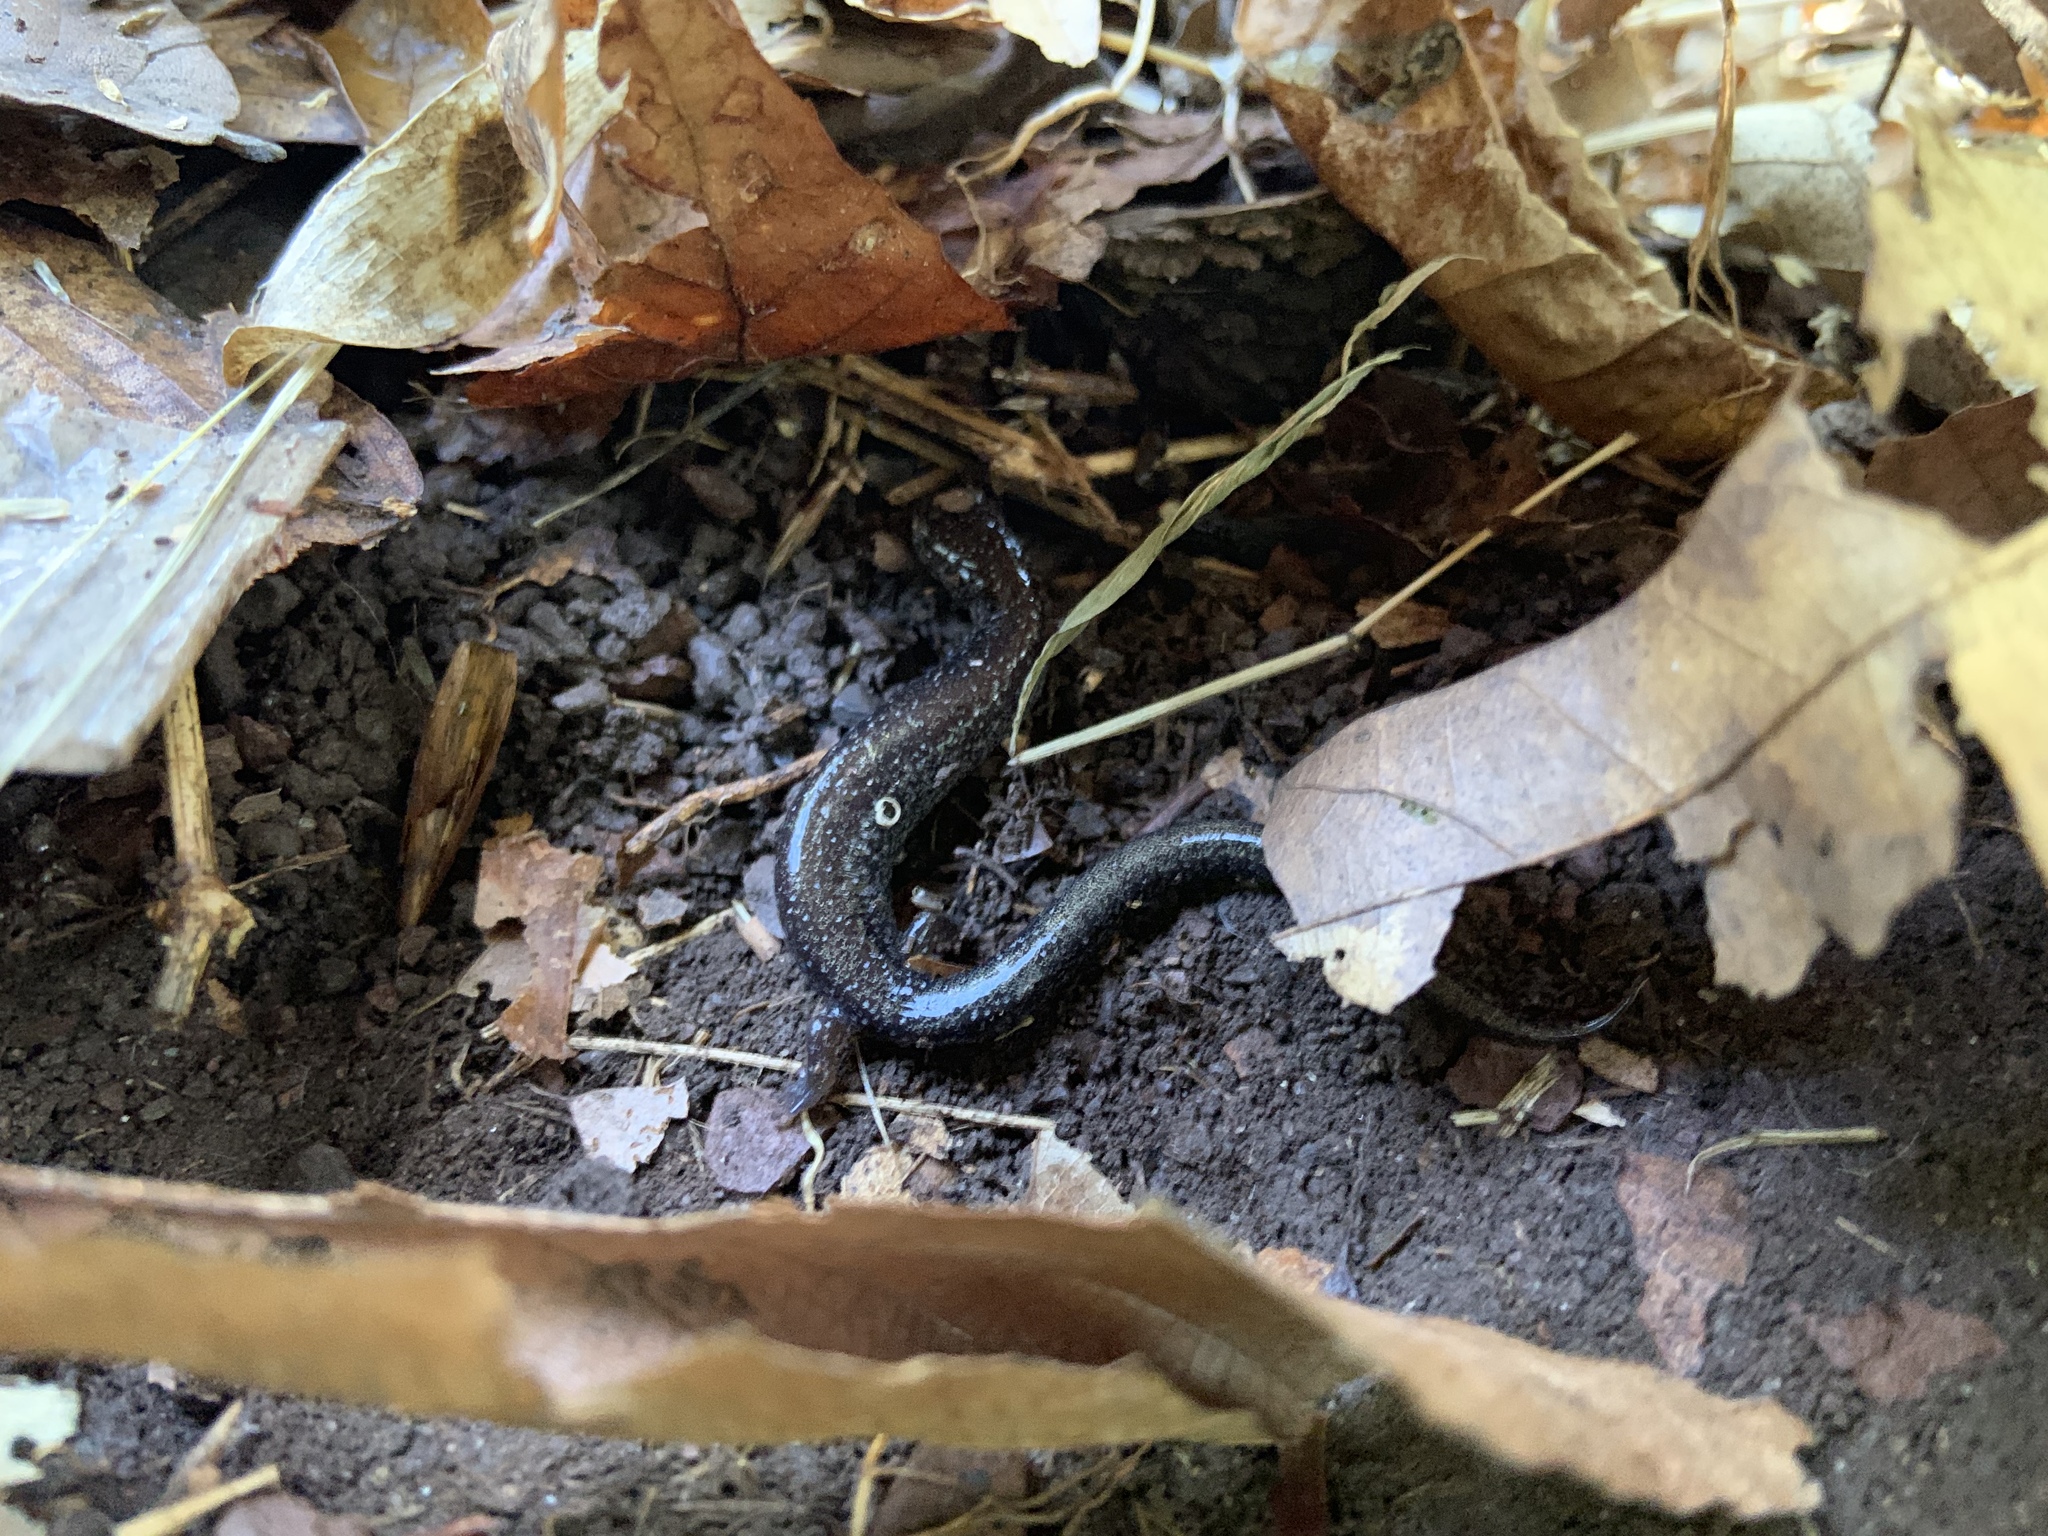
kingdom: Animalia
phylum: Chordata
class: Amphibia
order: Caudata
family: Plethodontidae
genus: Plethodon
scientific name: Plethodon cinereus
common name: Redback salamander
